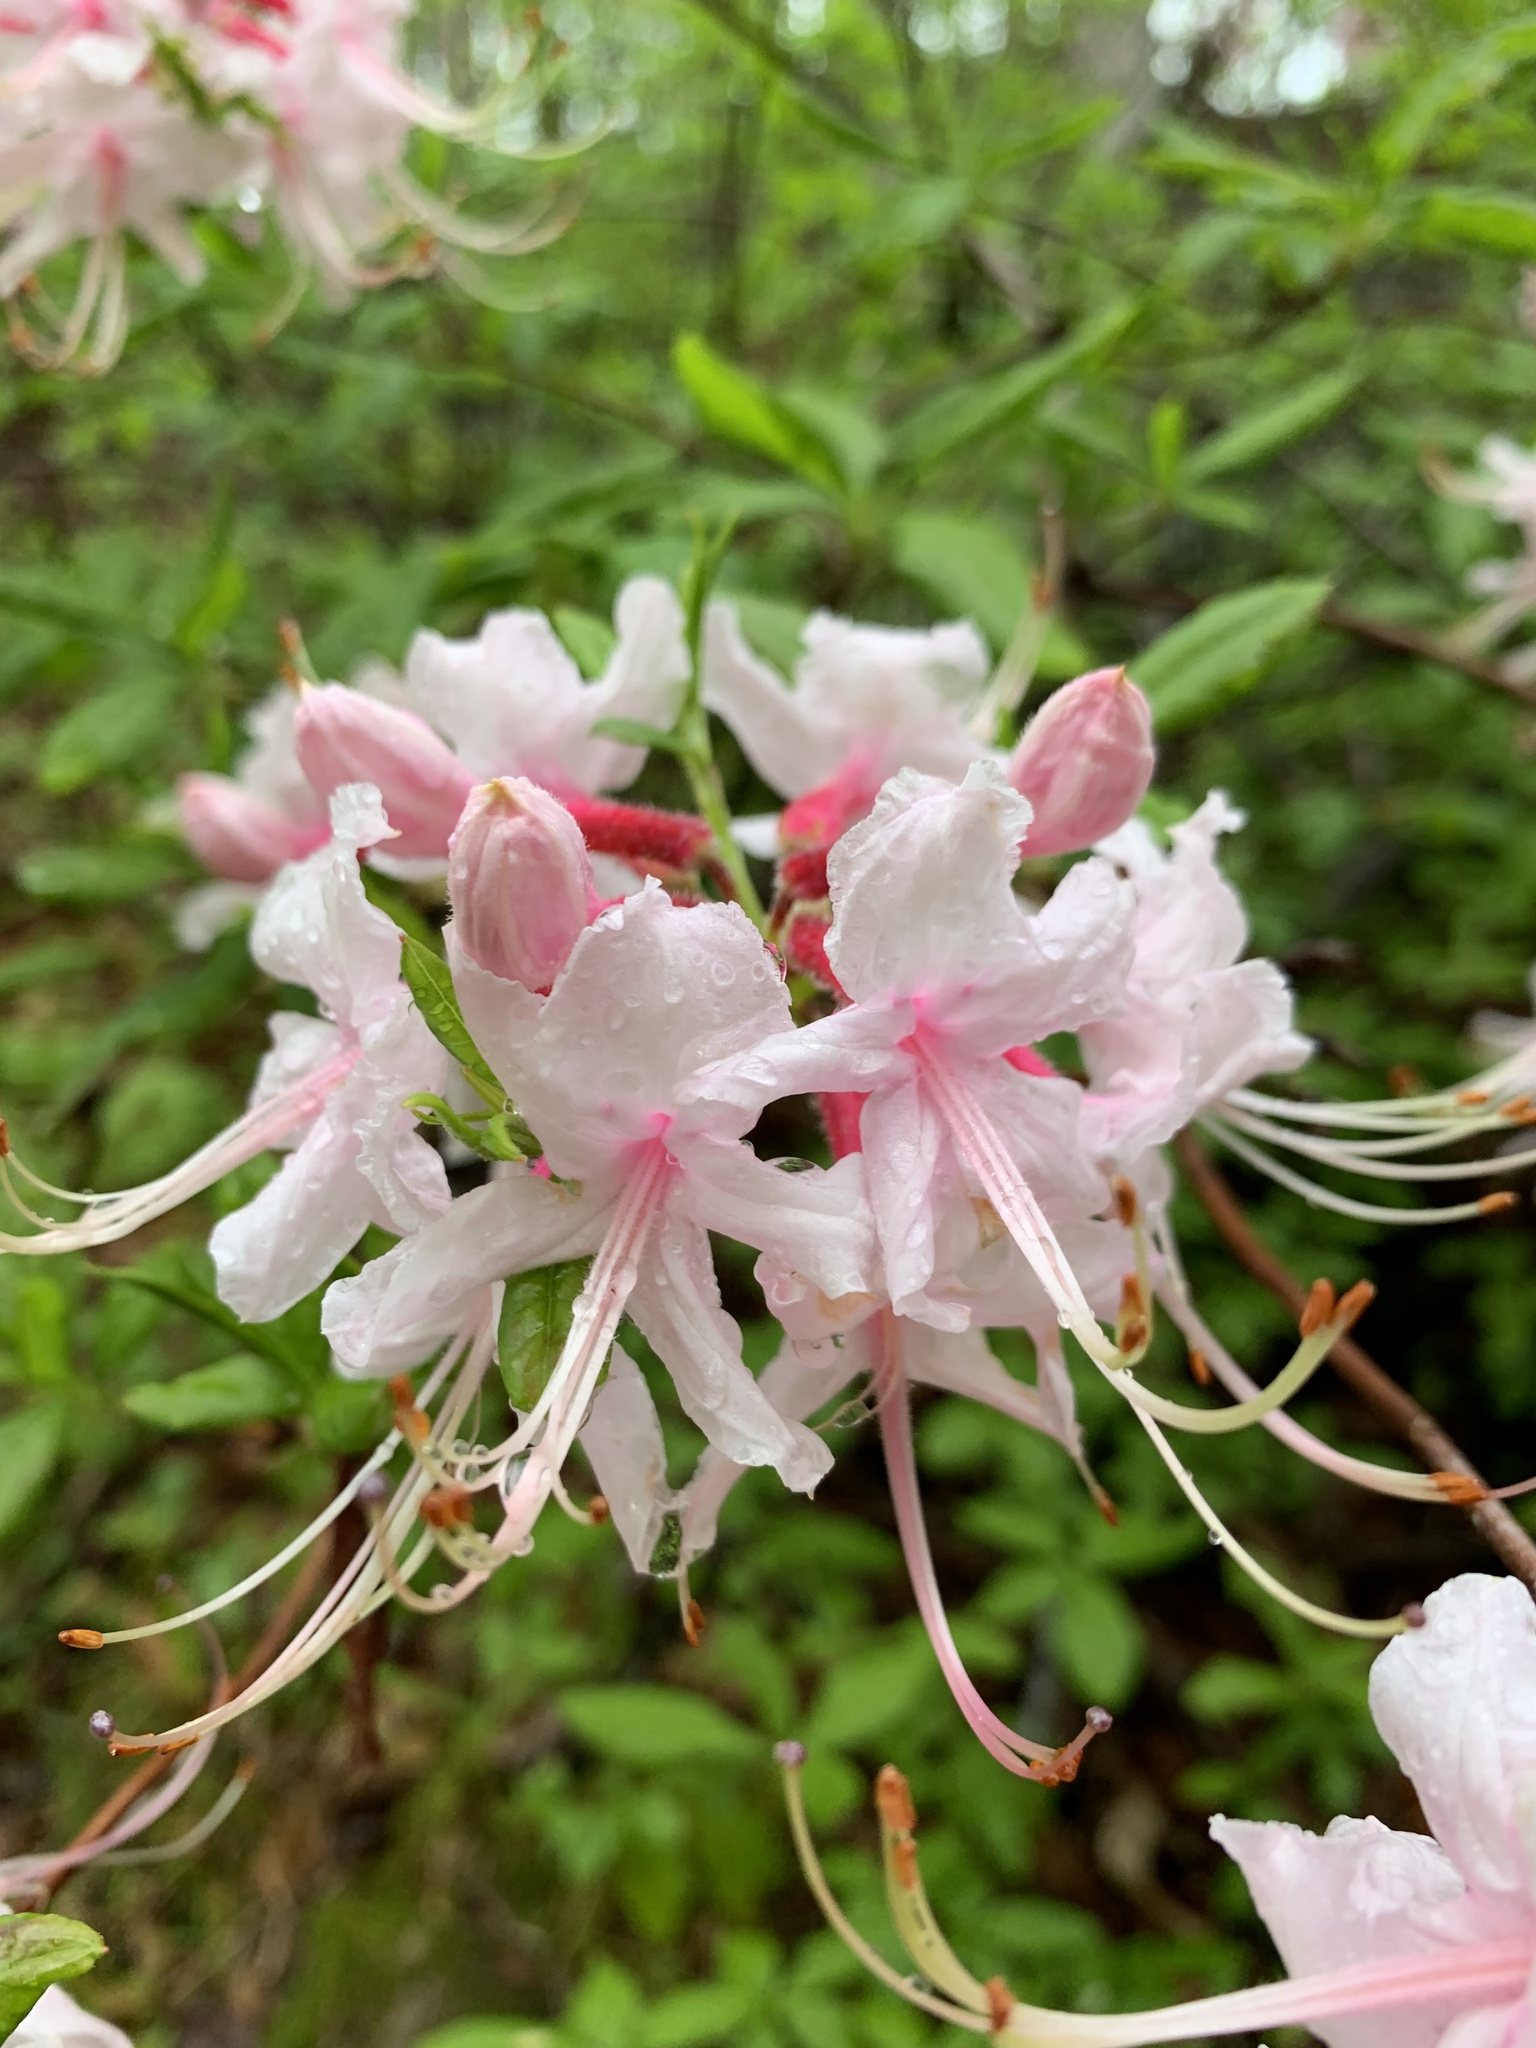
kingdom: Plantae
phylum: Tracheophyta
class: Magnoliopsida
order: Ericales
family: Ericaceae
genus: Rhododendron
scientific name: Rhododendron periclymenoides
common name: Election-pink
